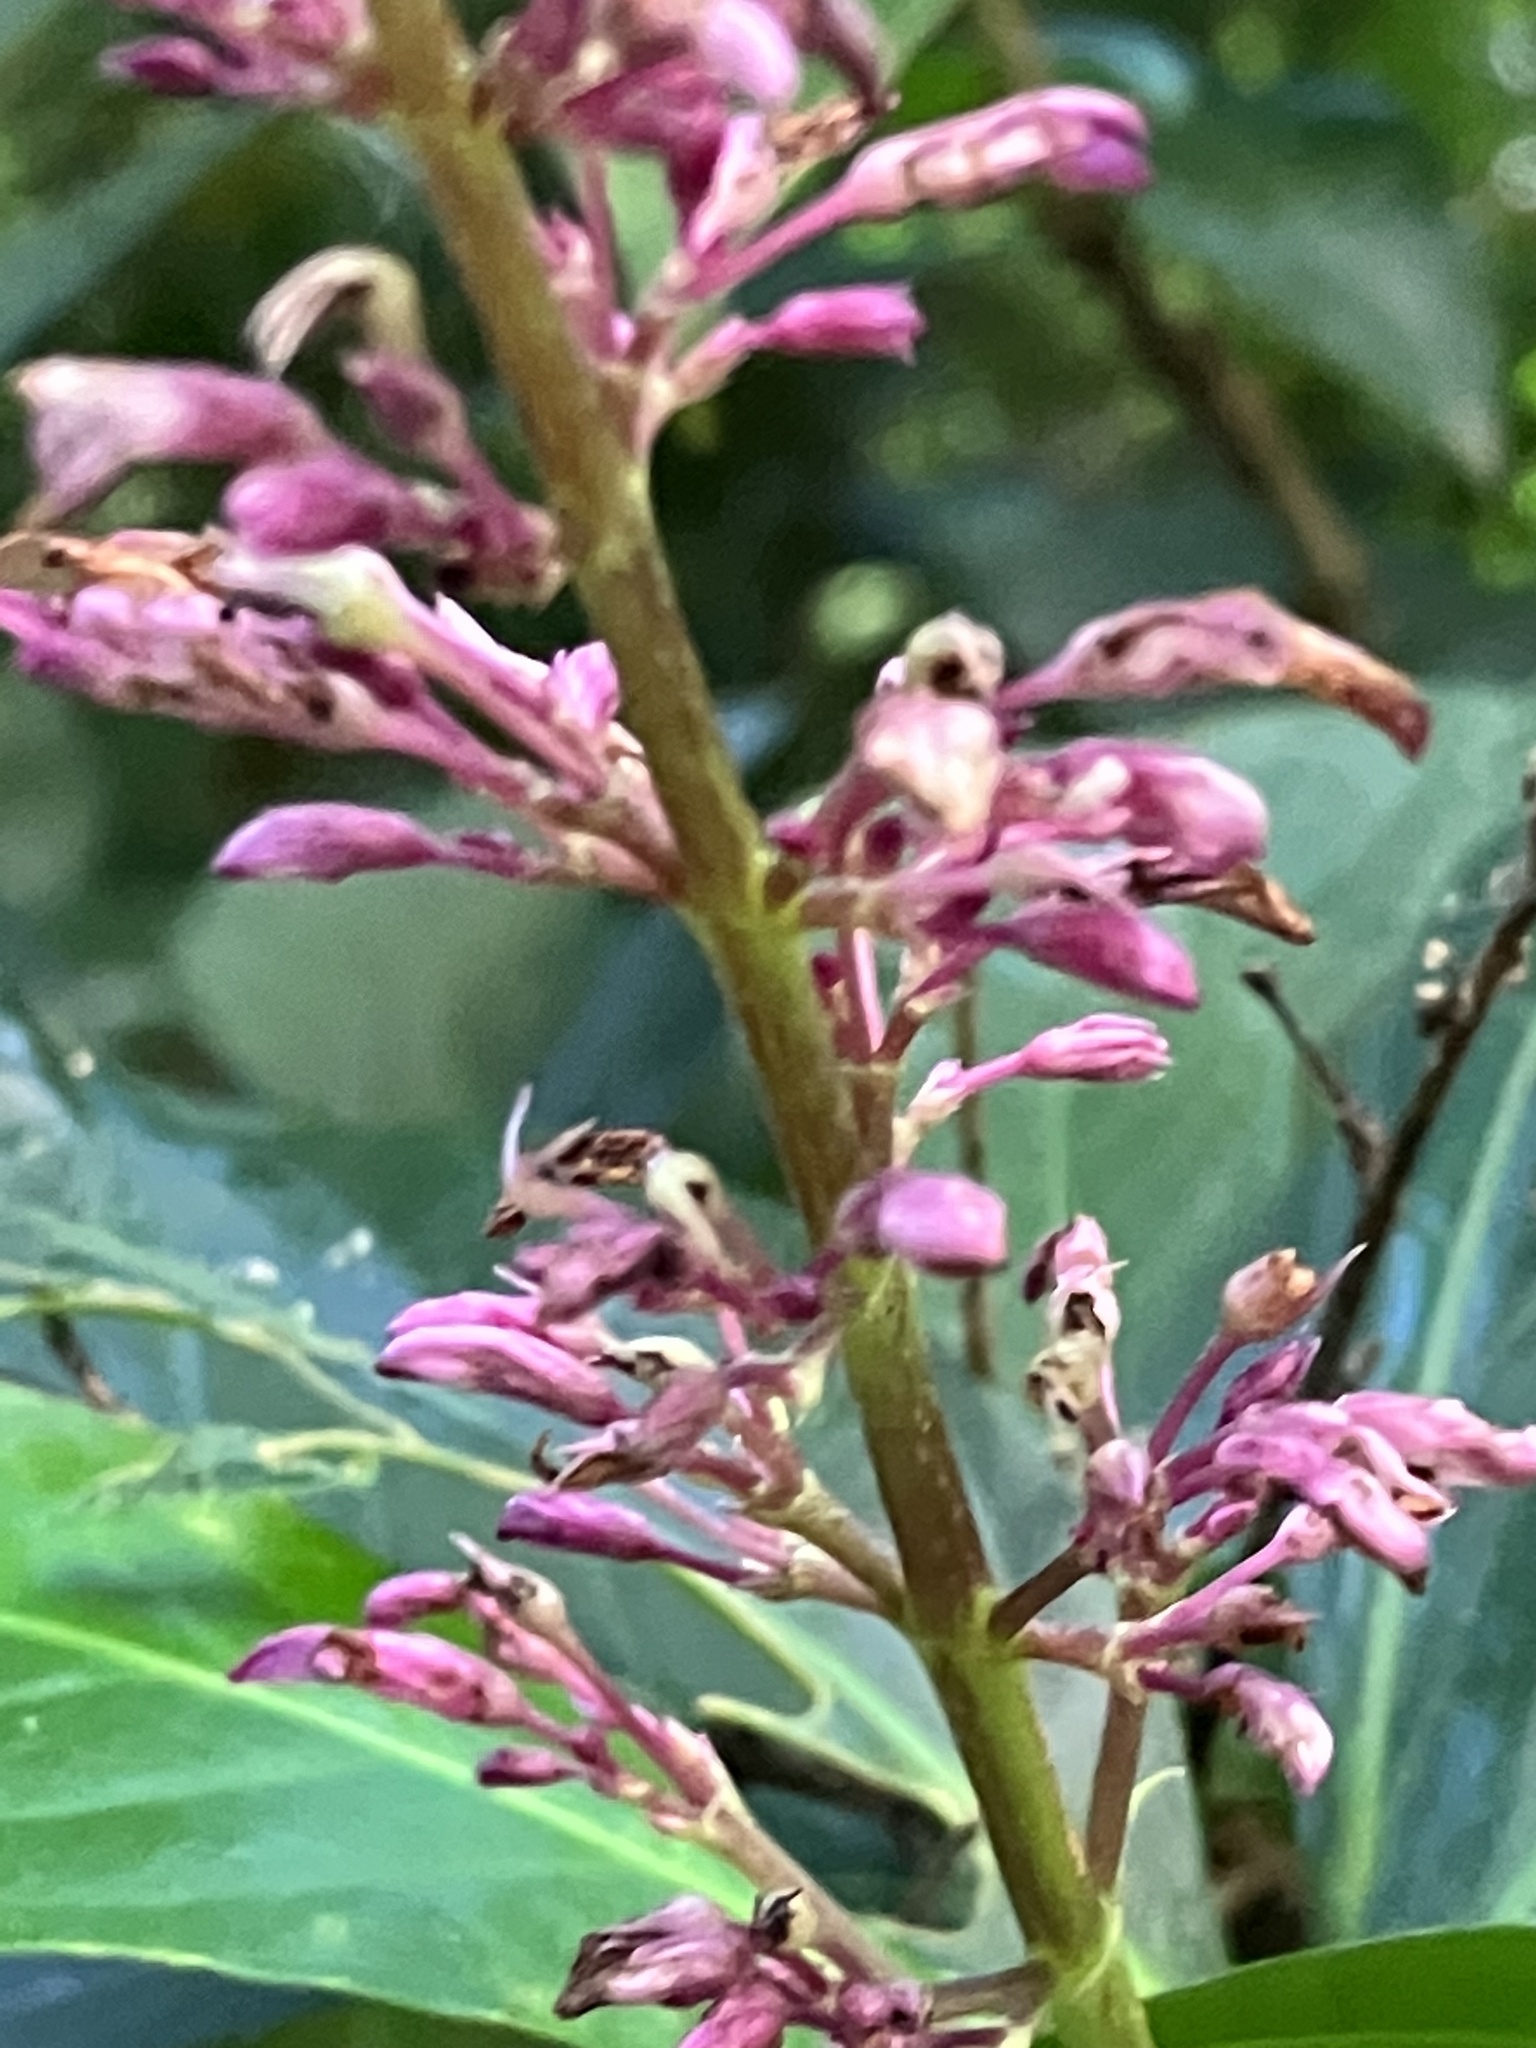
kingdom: Plantae
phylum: Tracheophyta
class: Magnoliopsida
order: Lamiales
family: Acanthaceae
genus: Odontonema
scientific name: Odontonema nitidum
